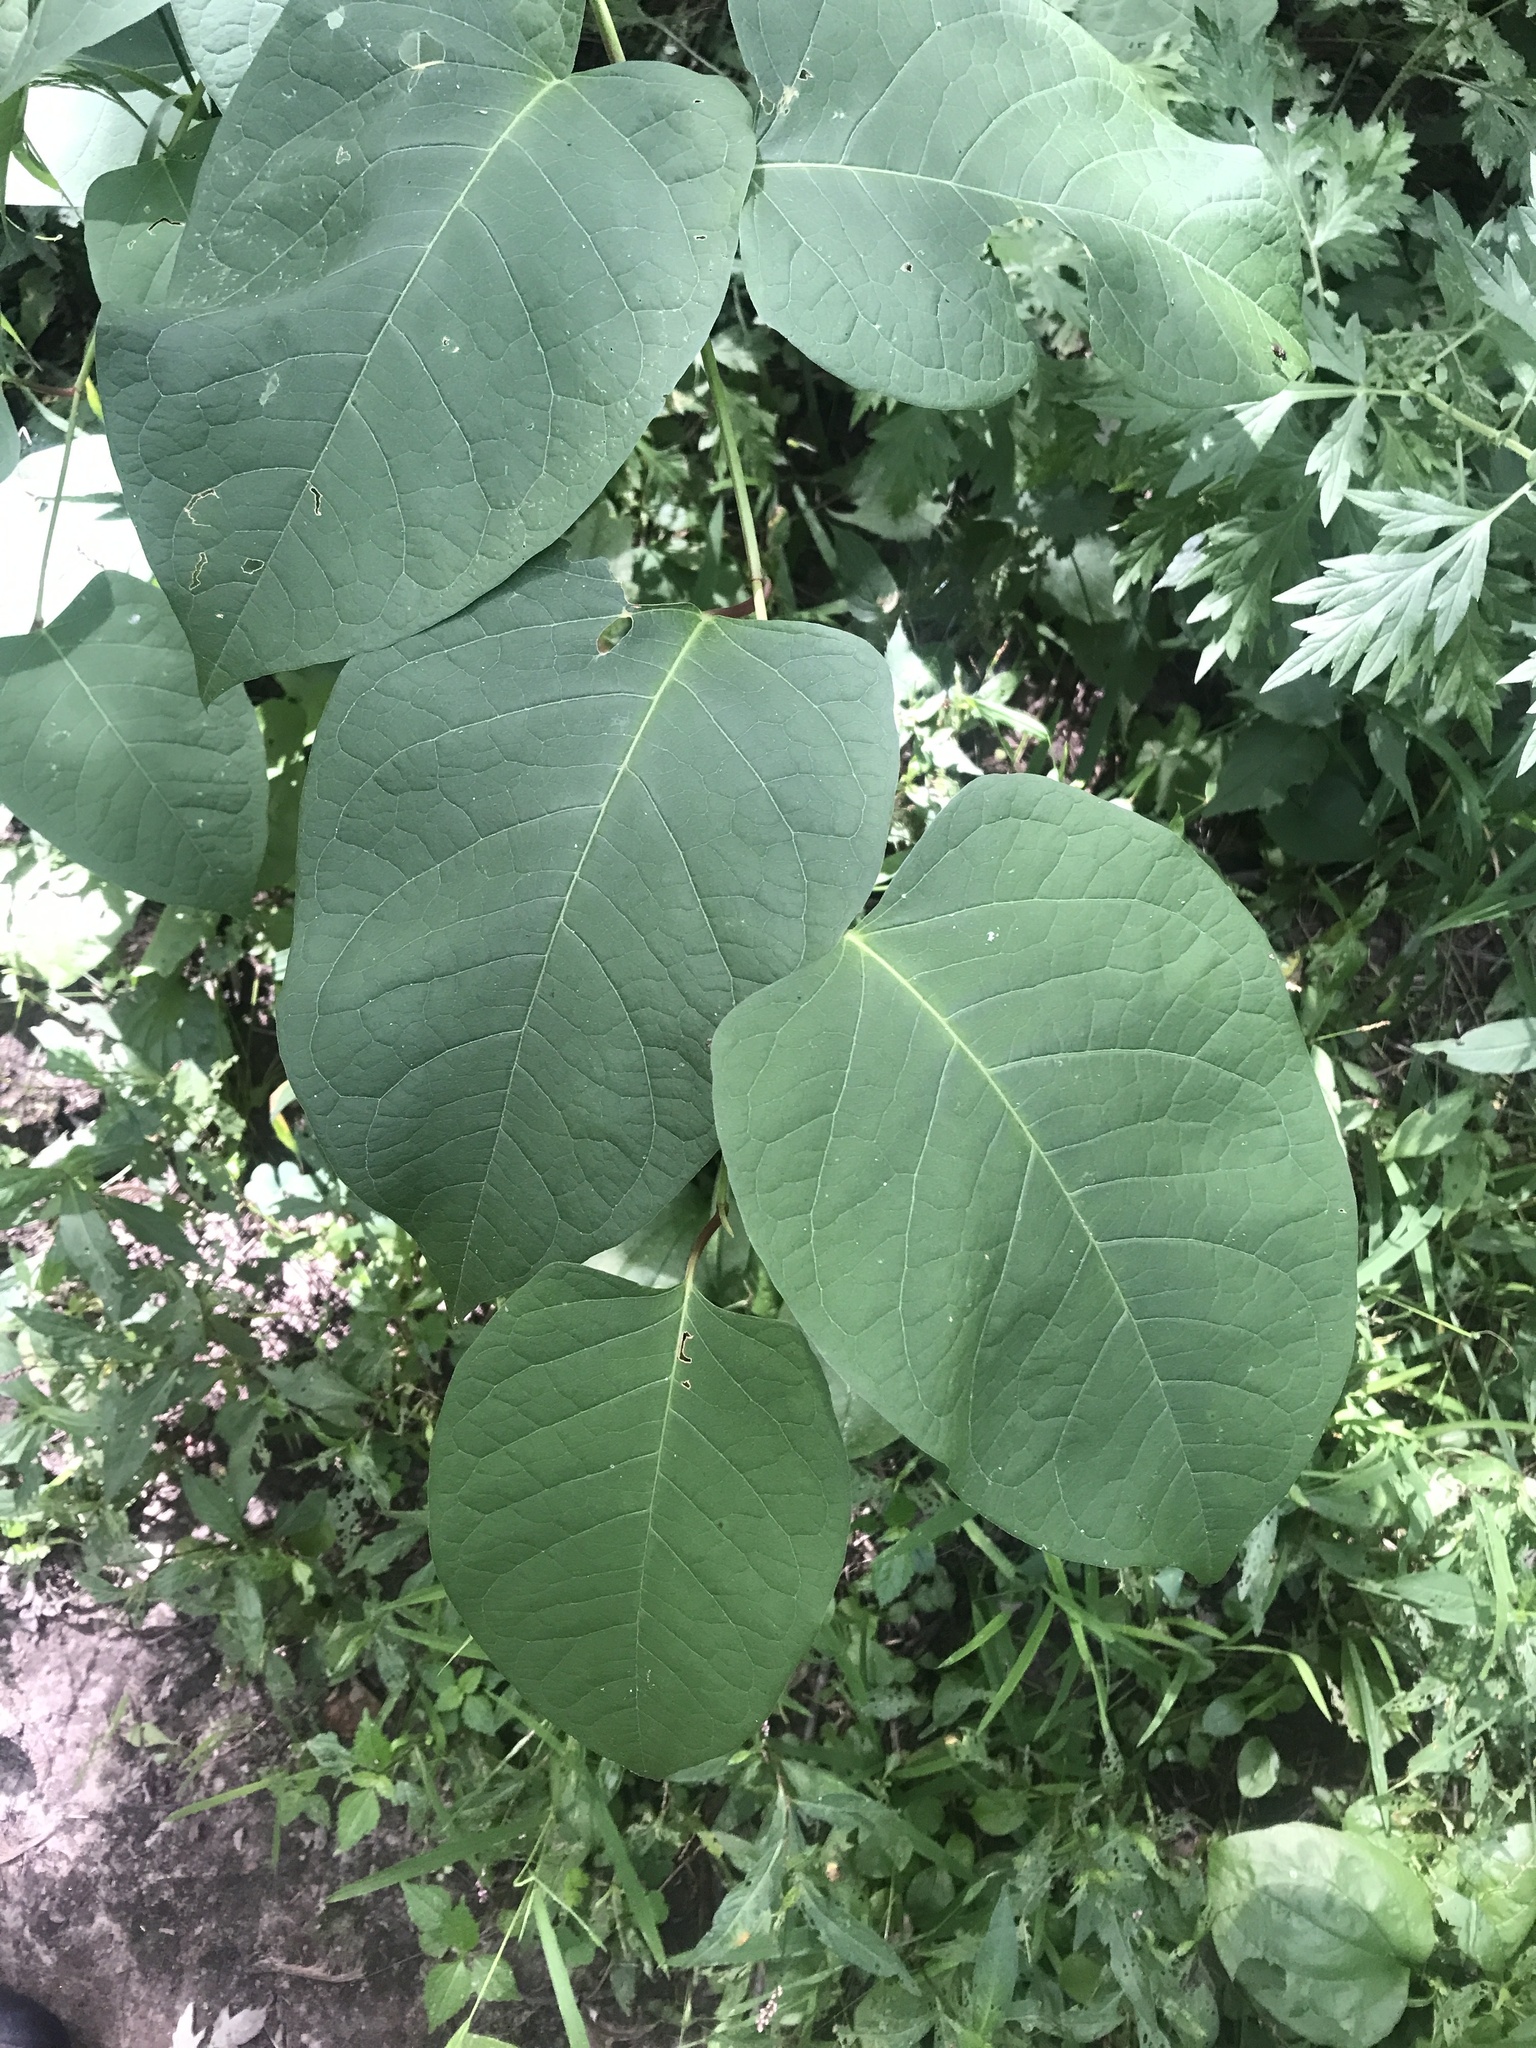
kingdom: Plantae
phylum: Tracheophyta
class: Magnoliopsida
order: Caryophyllales
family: Polygonaceae
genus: Reynoutria
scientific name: Reynoutria japonica
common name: Japanese knotweed
